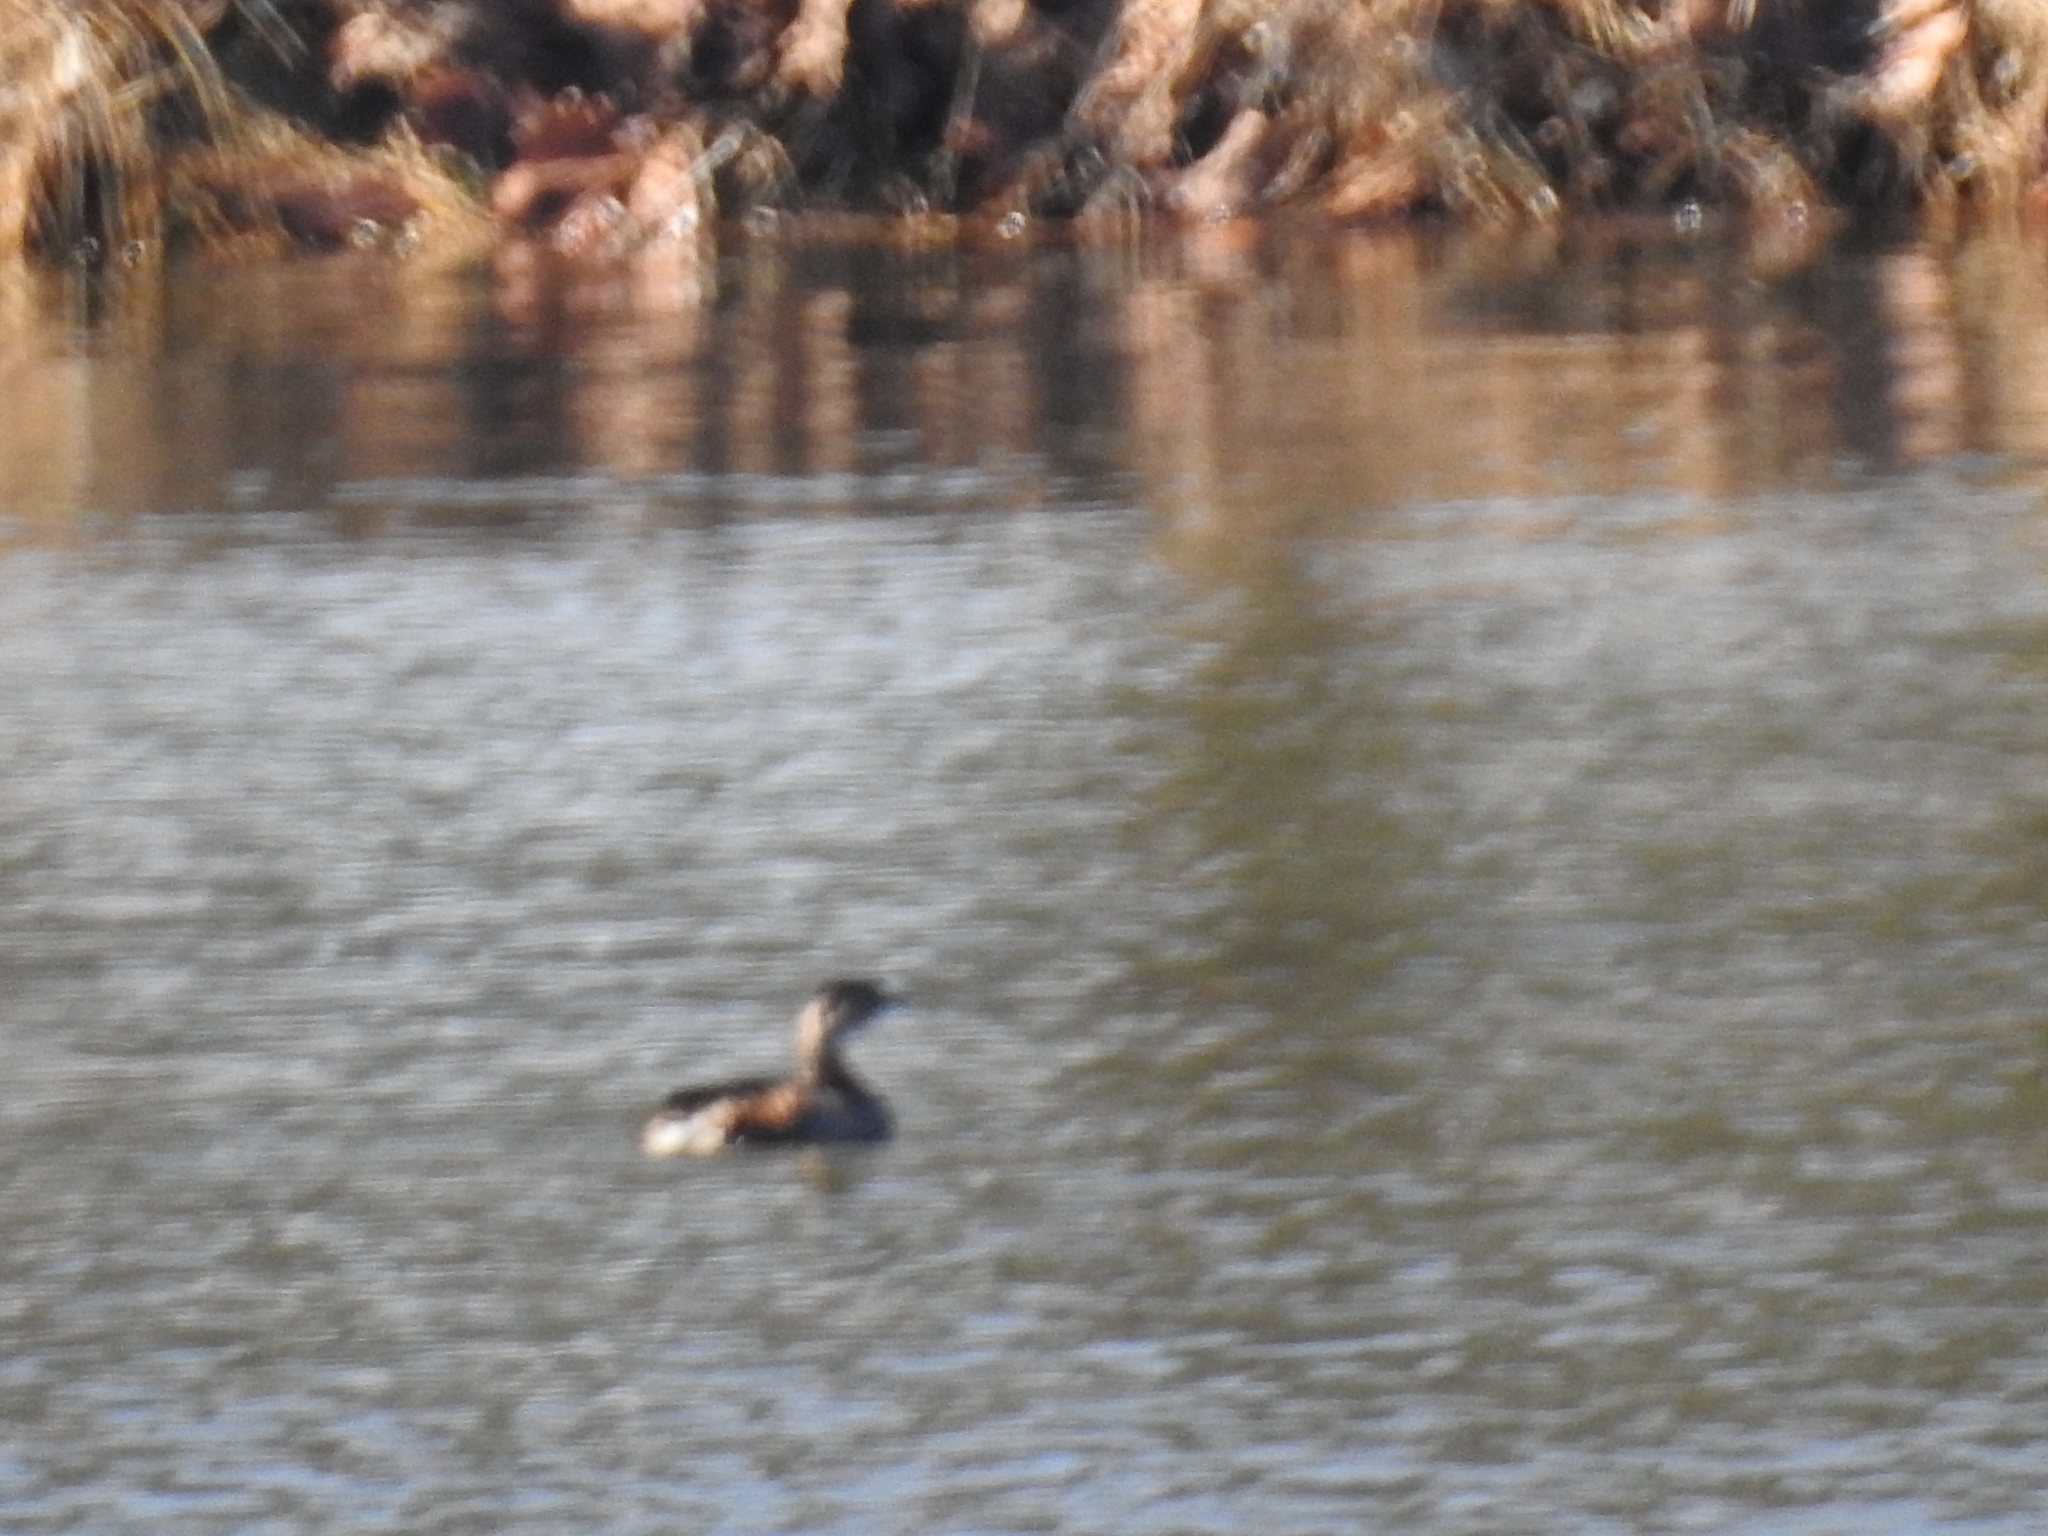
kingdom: Animalia
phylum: Chordata
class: Aves
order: Podicipediformes
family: Podicipedidae
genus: Podilymbus
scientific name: Podilymbus podiceps
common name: Pied-billed grebe
